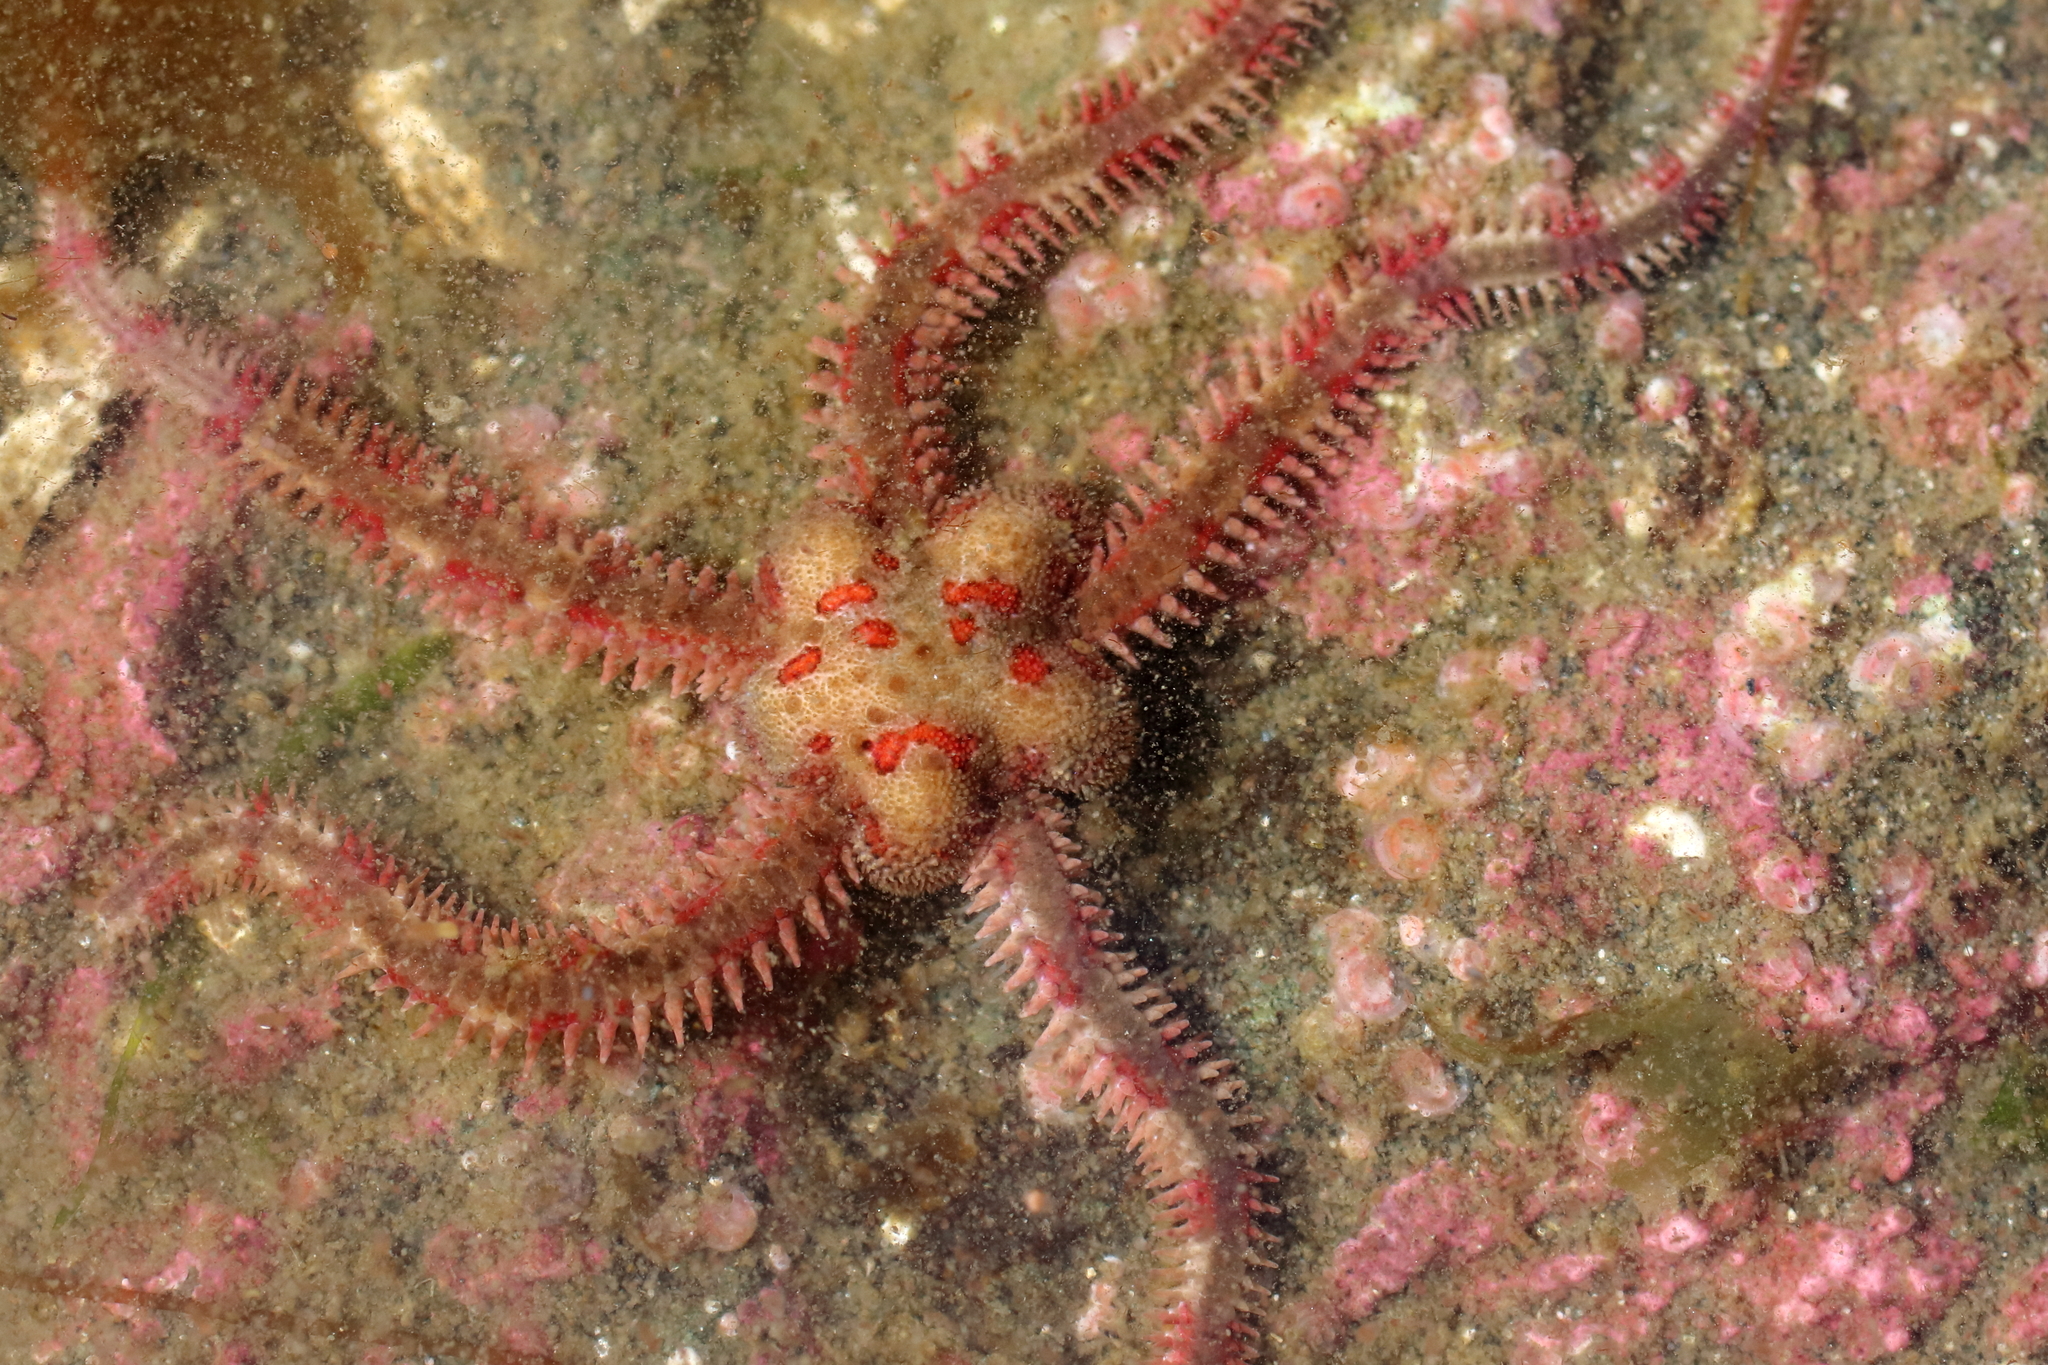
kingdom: Animalia
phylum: Echinodermata
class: Ophiuroidea
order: Amphilepidida
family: Ophiopholidae
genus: Ophiopholis
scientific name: Ophiopholis kennerlyi
